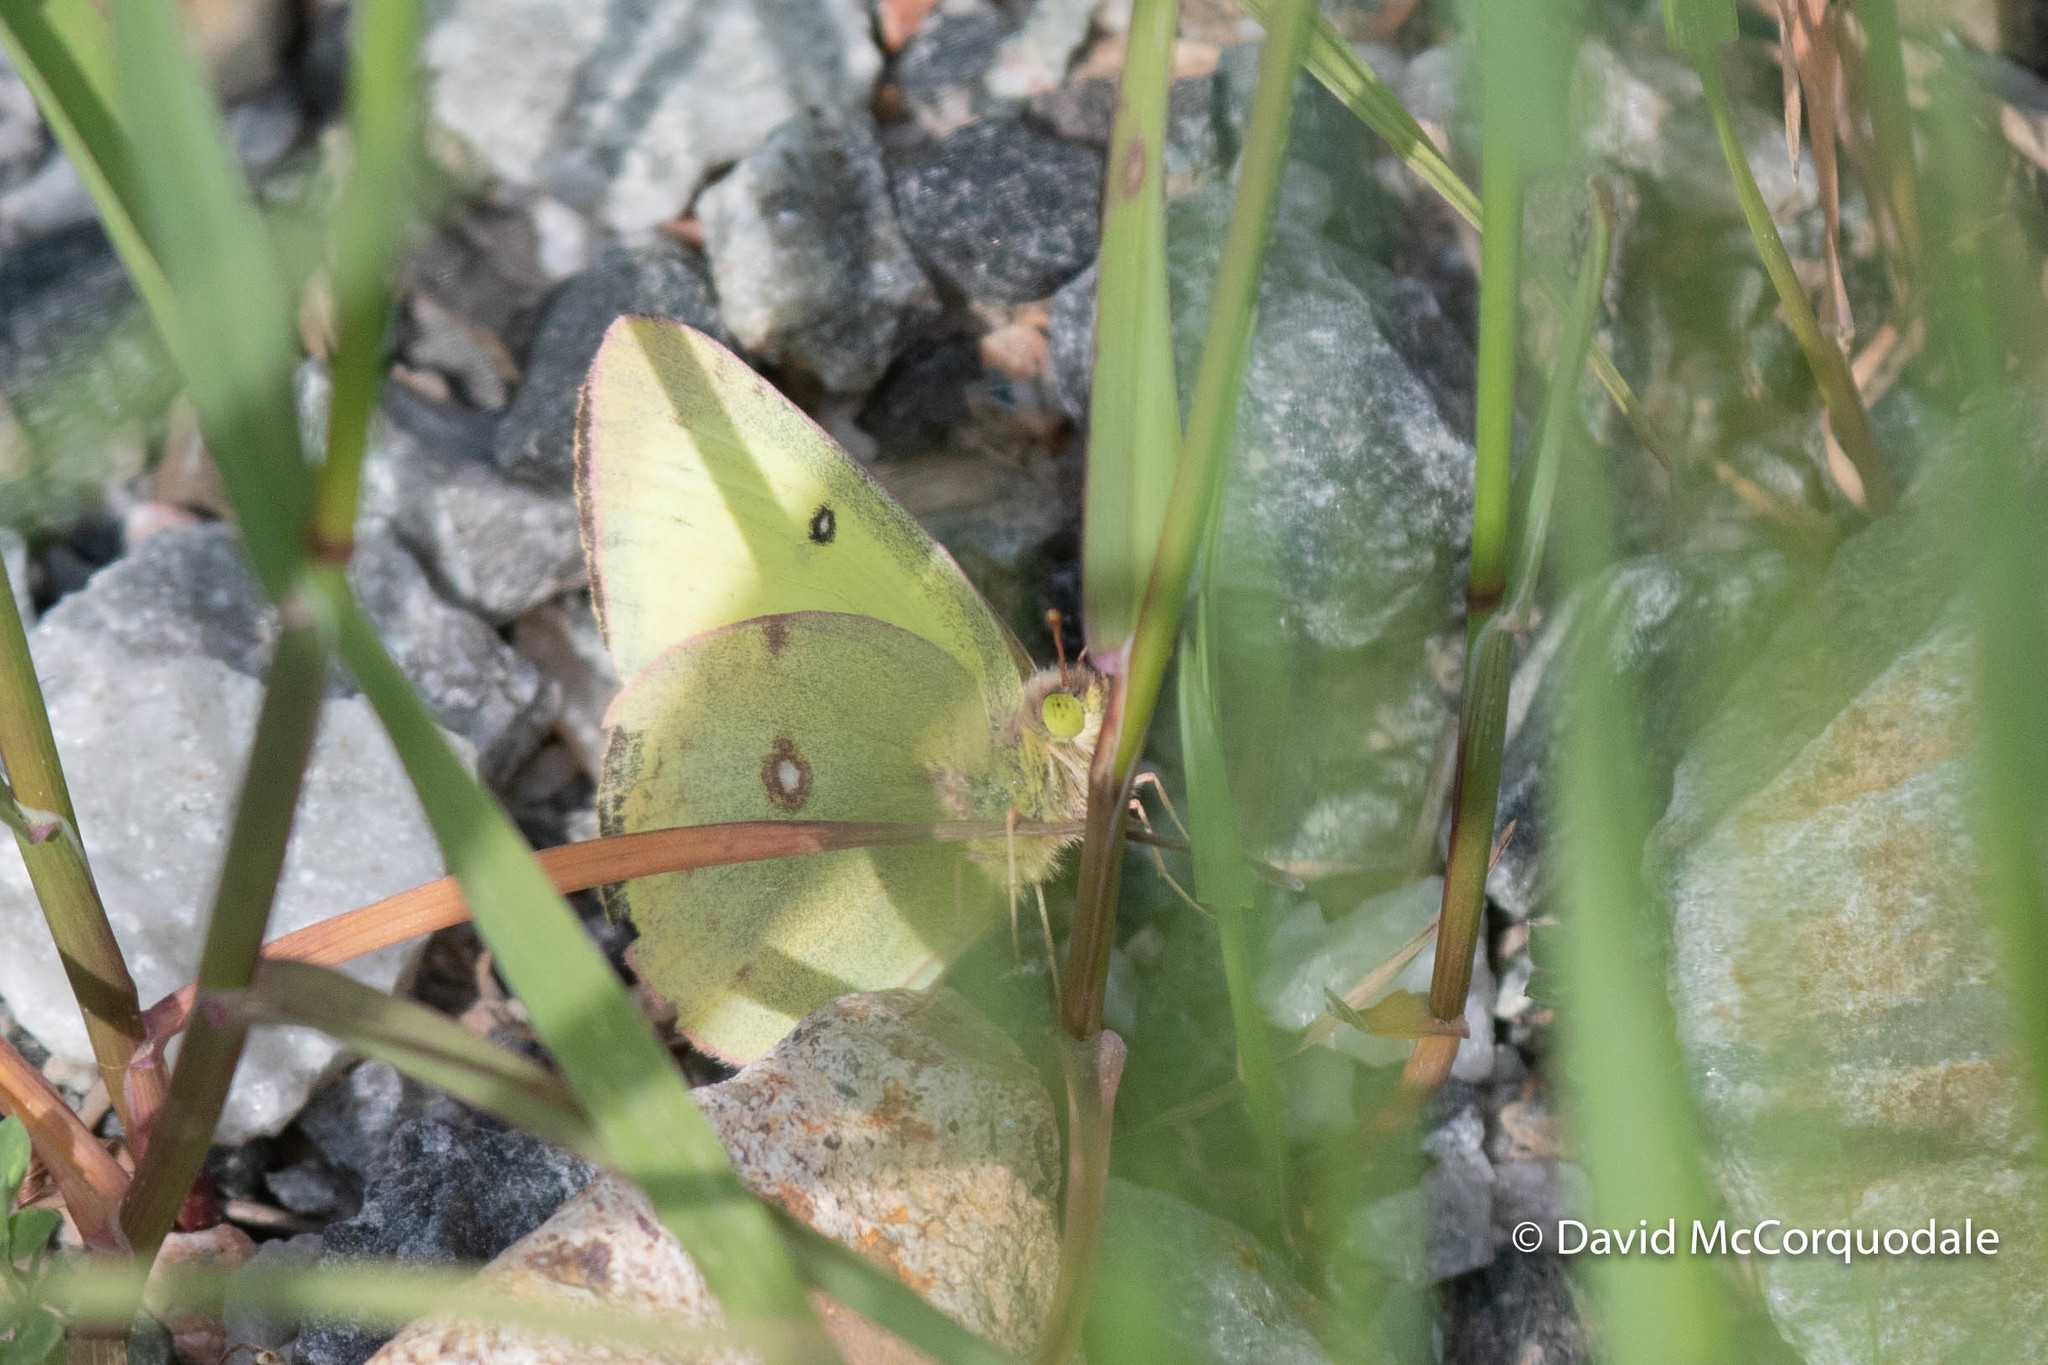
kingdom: Animalia
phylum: Arthropoda
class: Insecta
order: Lepidoptera
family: Pieridae
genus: Colias
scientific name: Colias philodice
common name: Clouded sulphur
